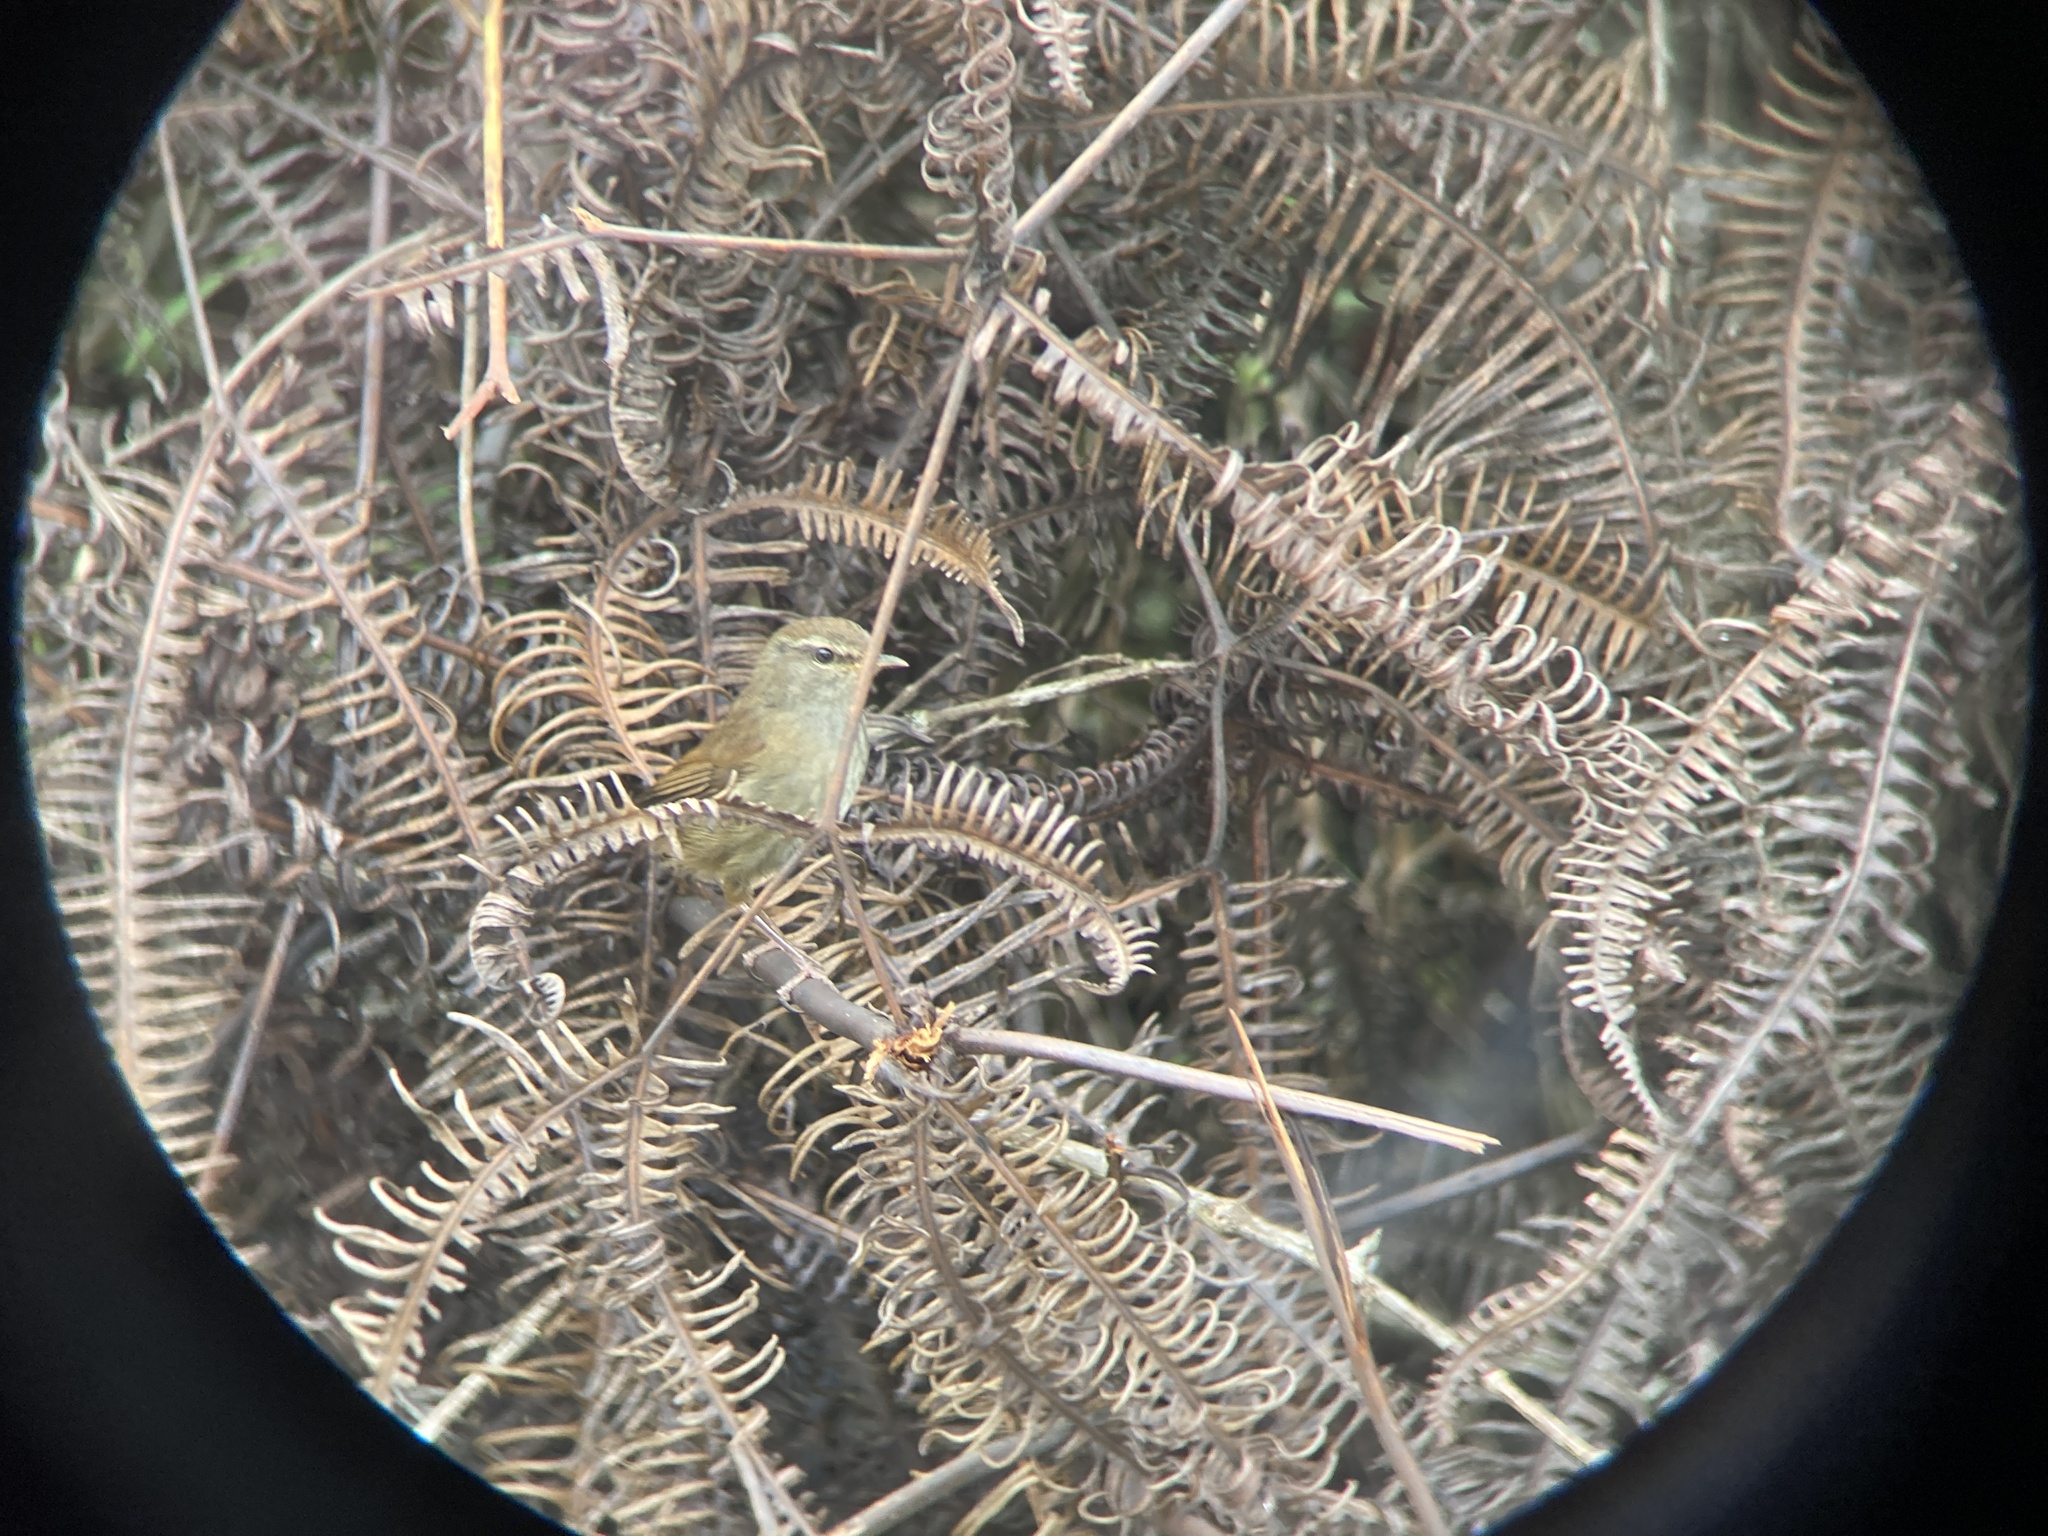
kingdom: Animalia
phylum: Chordata
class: Aves
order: Passeriformes
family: Cettiidae
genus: Horornis
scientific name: Horornis flavolivaceus
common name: Aberrant bush warbler
